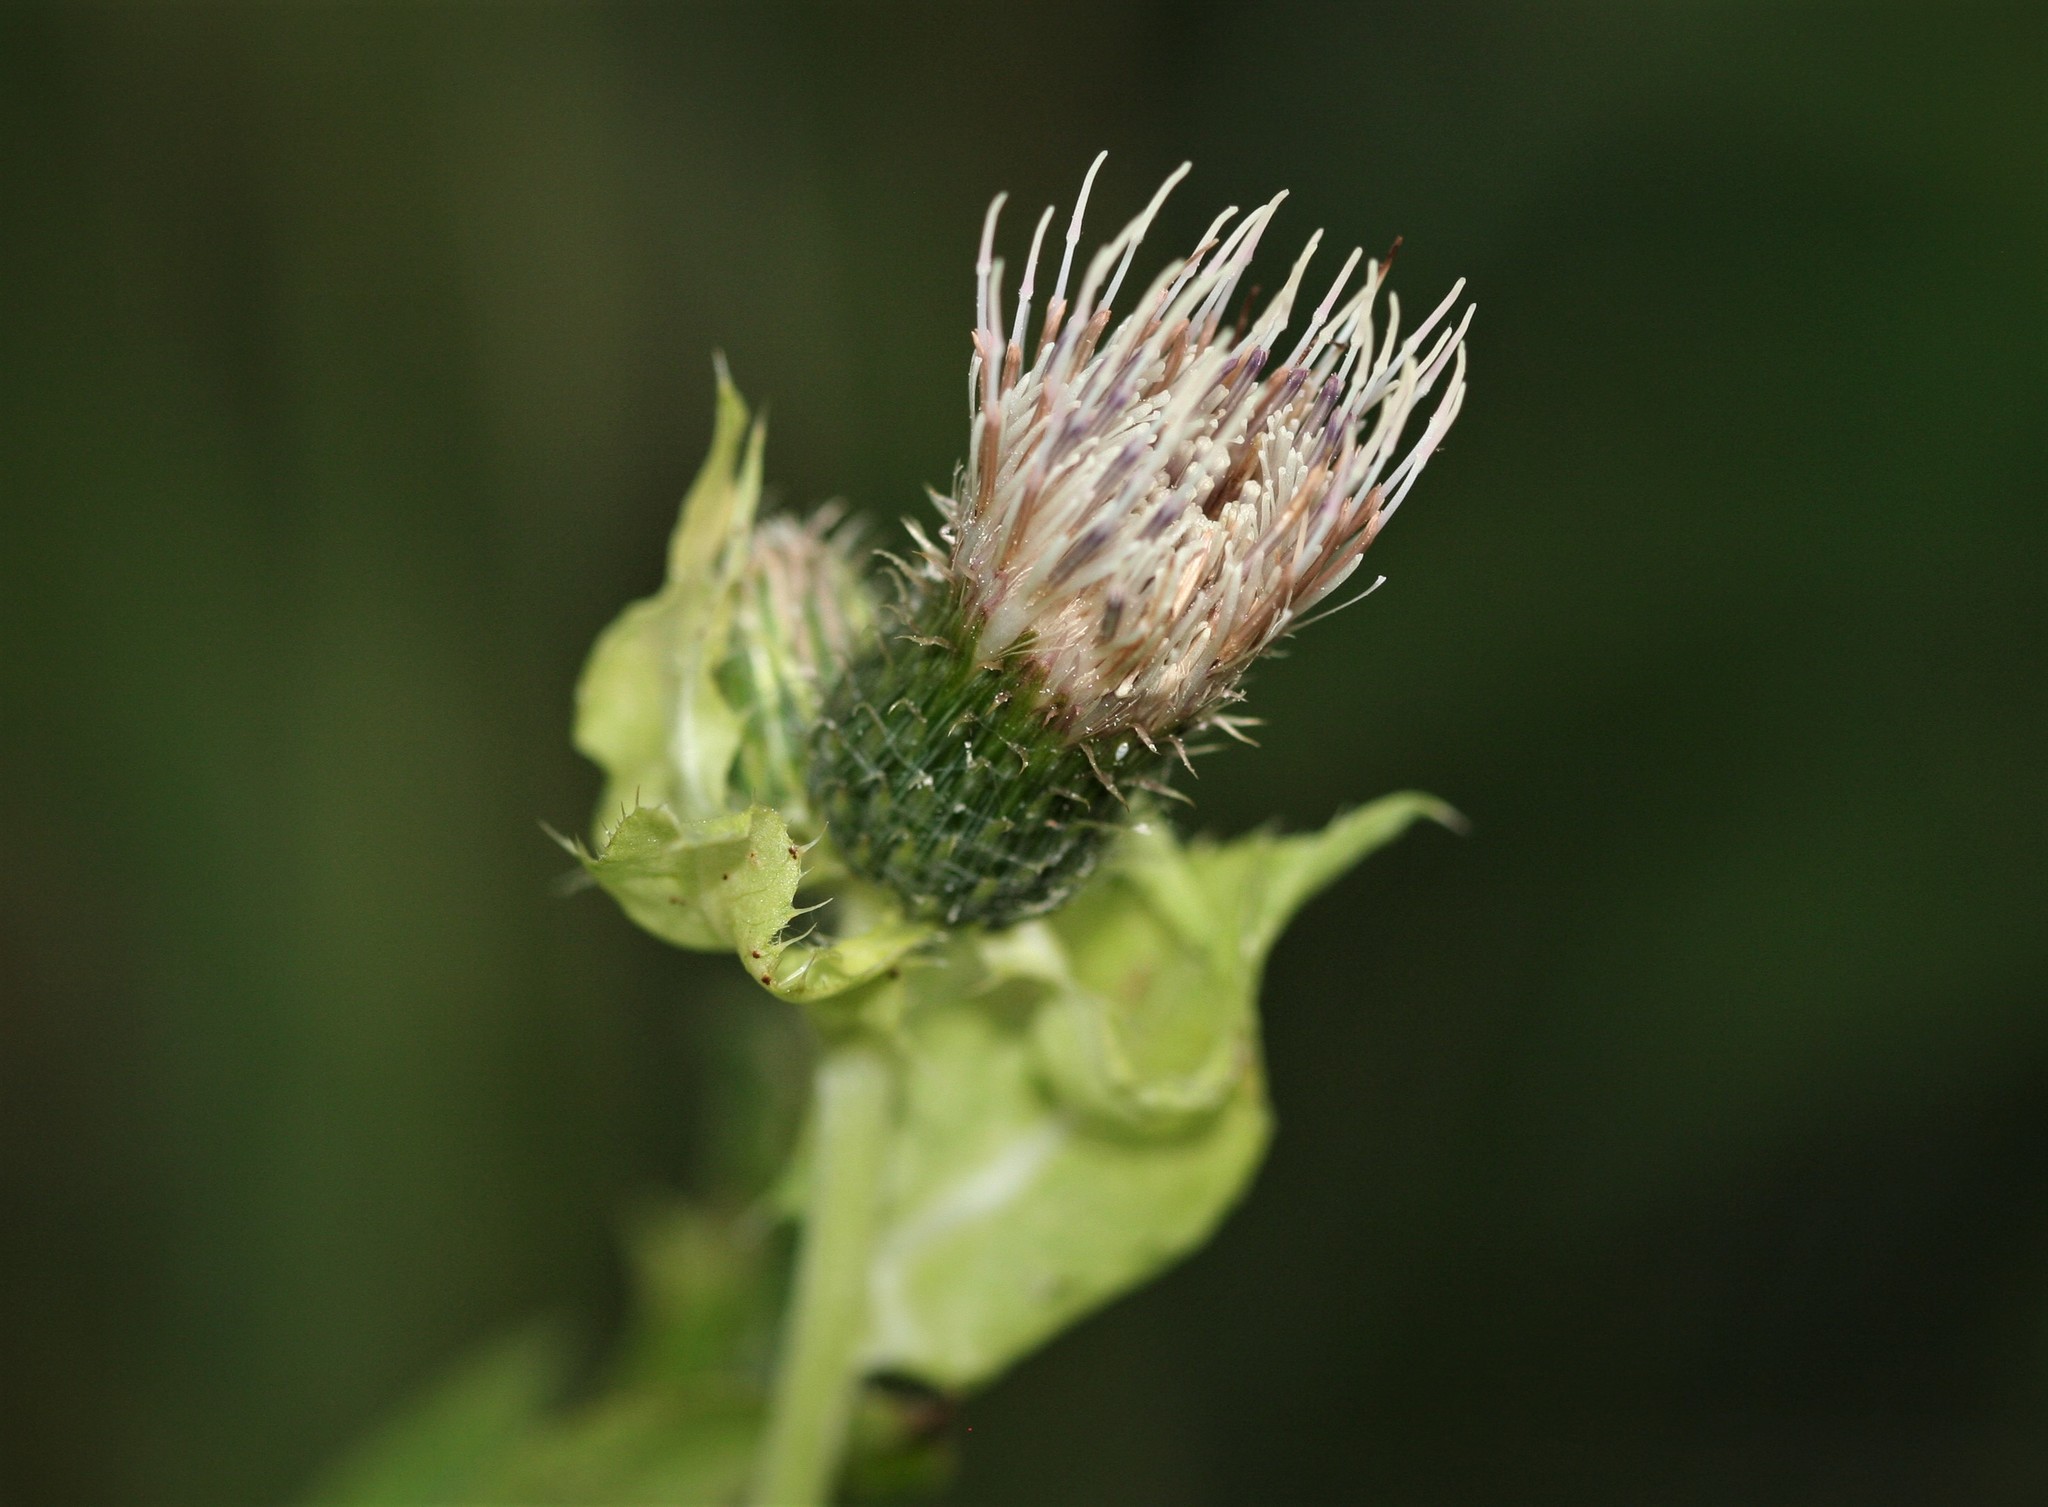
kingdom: Plantae
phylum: Tracheophyta
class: Magnoliopsida
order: Asterales
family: Asteraceae
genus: Cirsium
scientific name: Cirsium oleraceum
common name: Cabbage thistle
